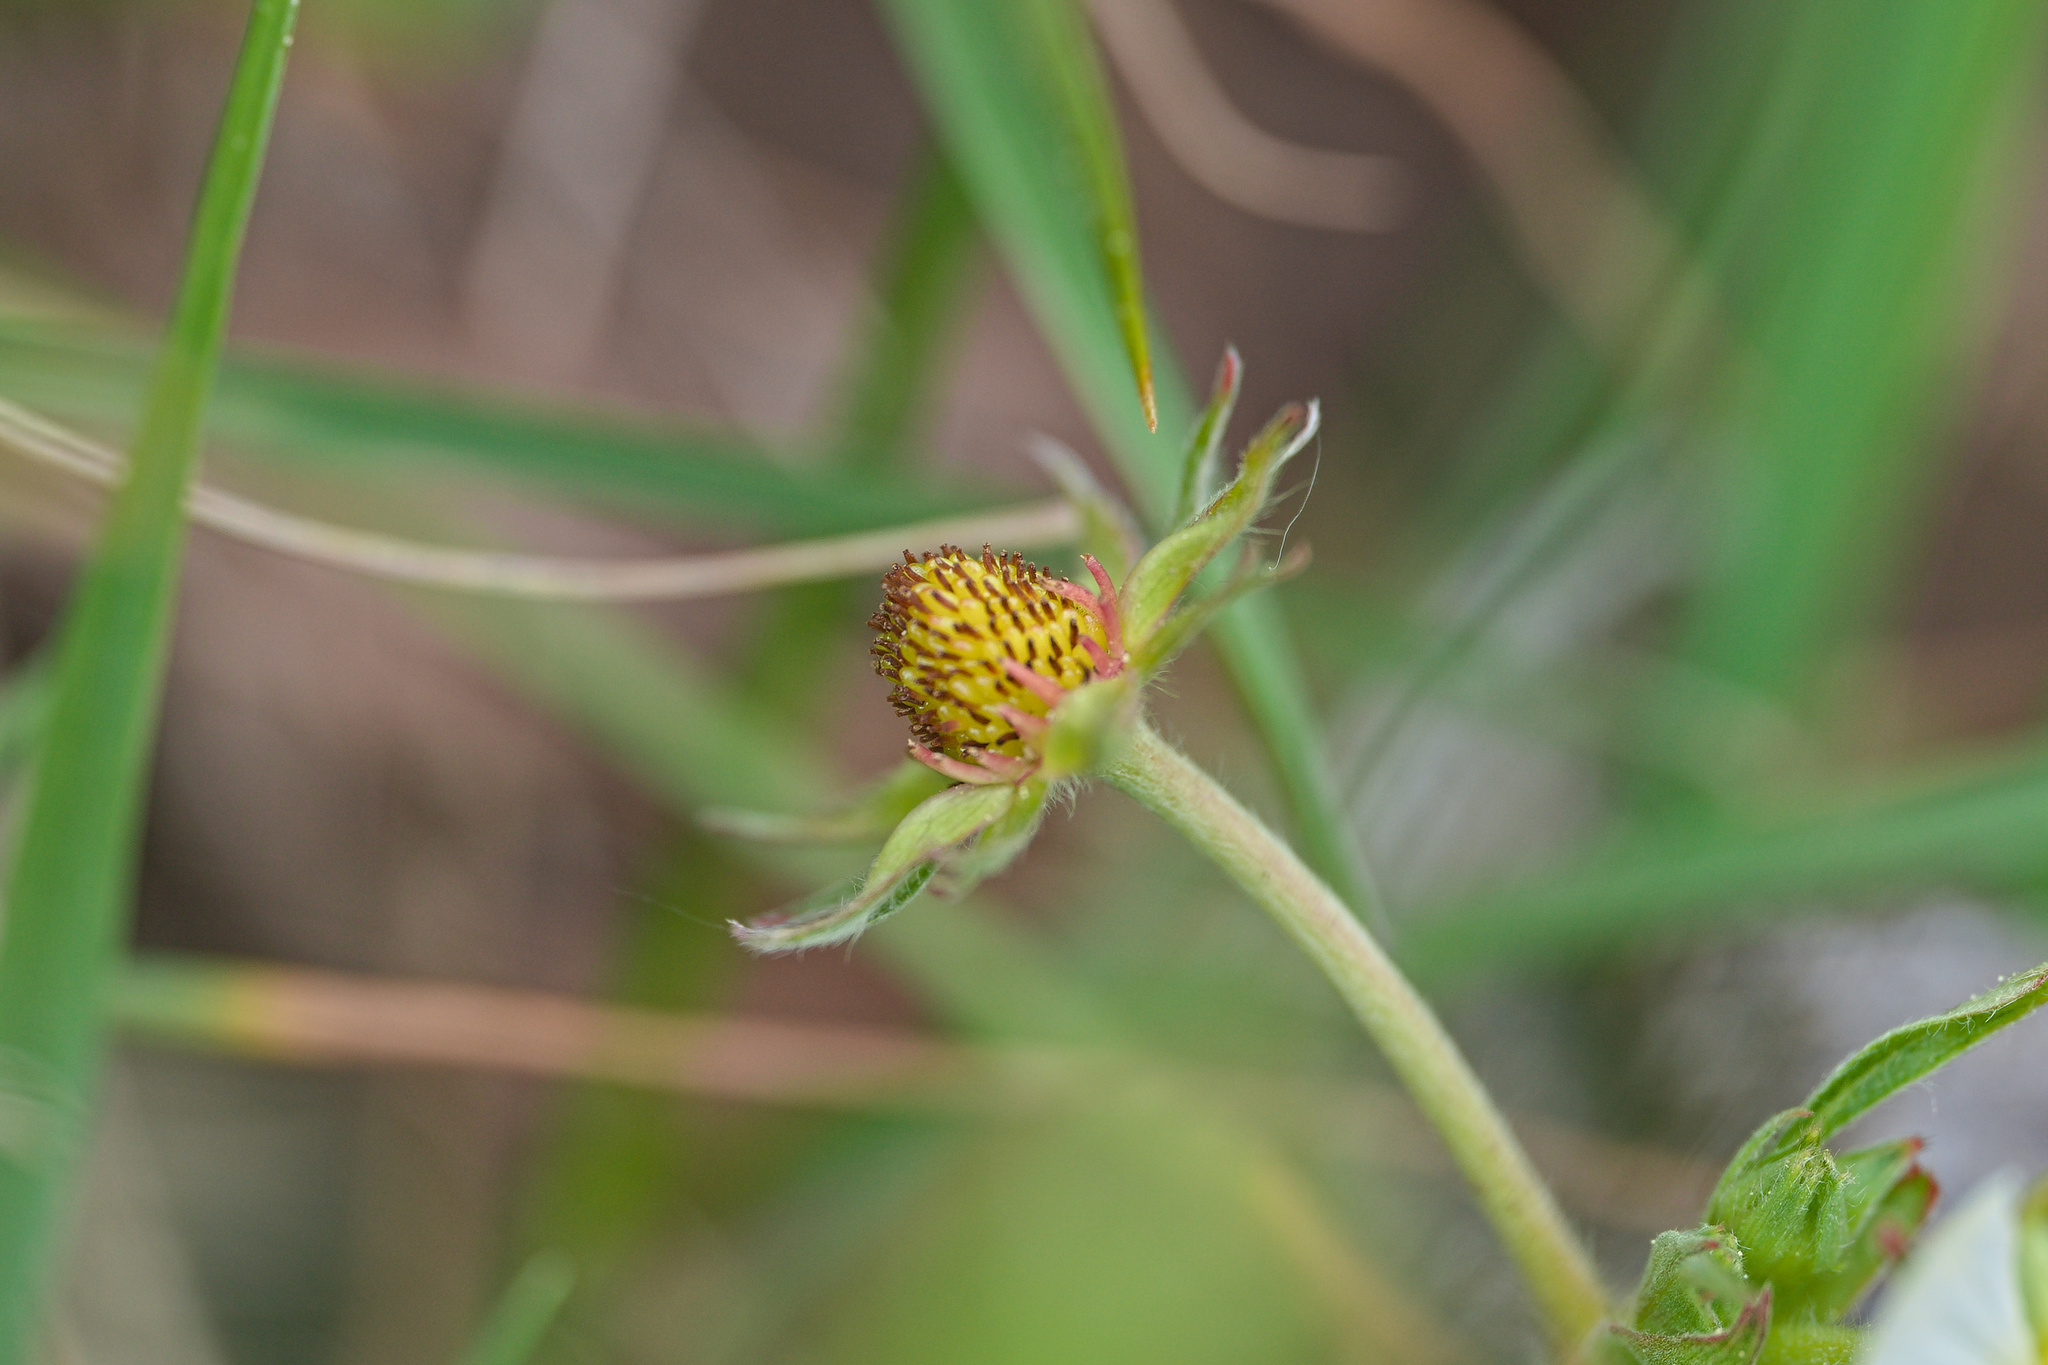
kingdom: Plantae
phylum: Tracheophyta
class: Magnoliopsida
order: Rosales
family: Rosaceae
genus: Potentilla
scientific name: Potentilla sterilis
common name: Barren strawberry
